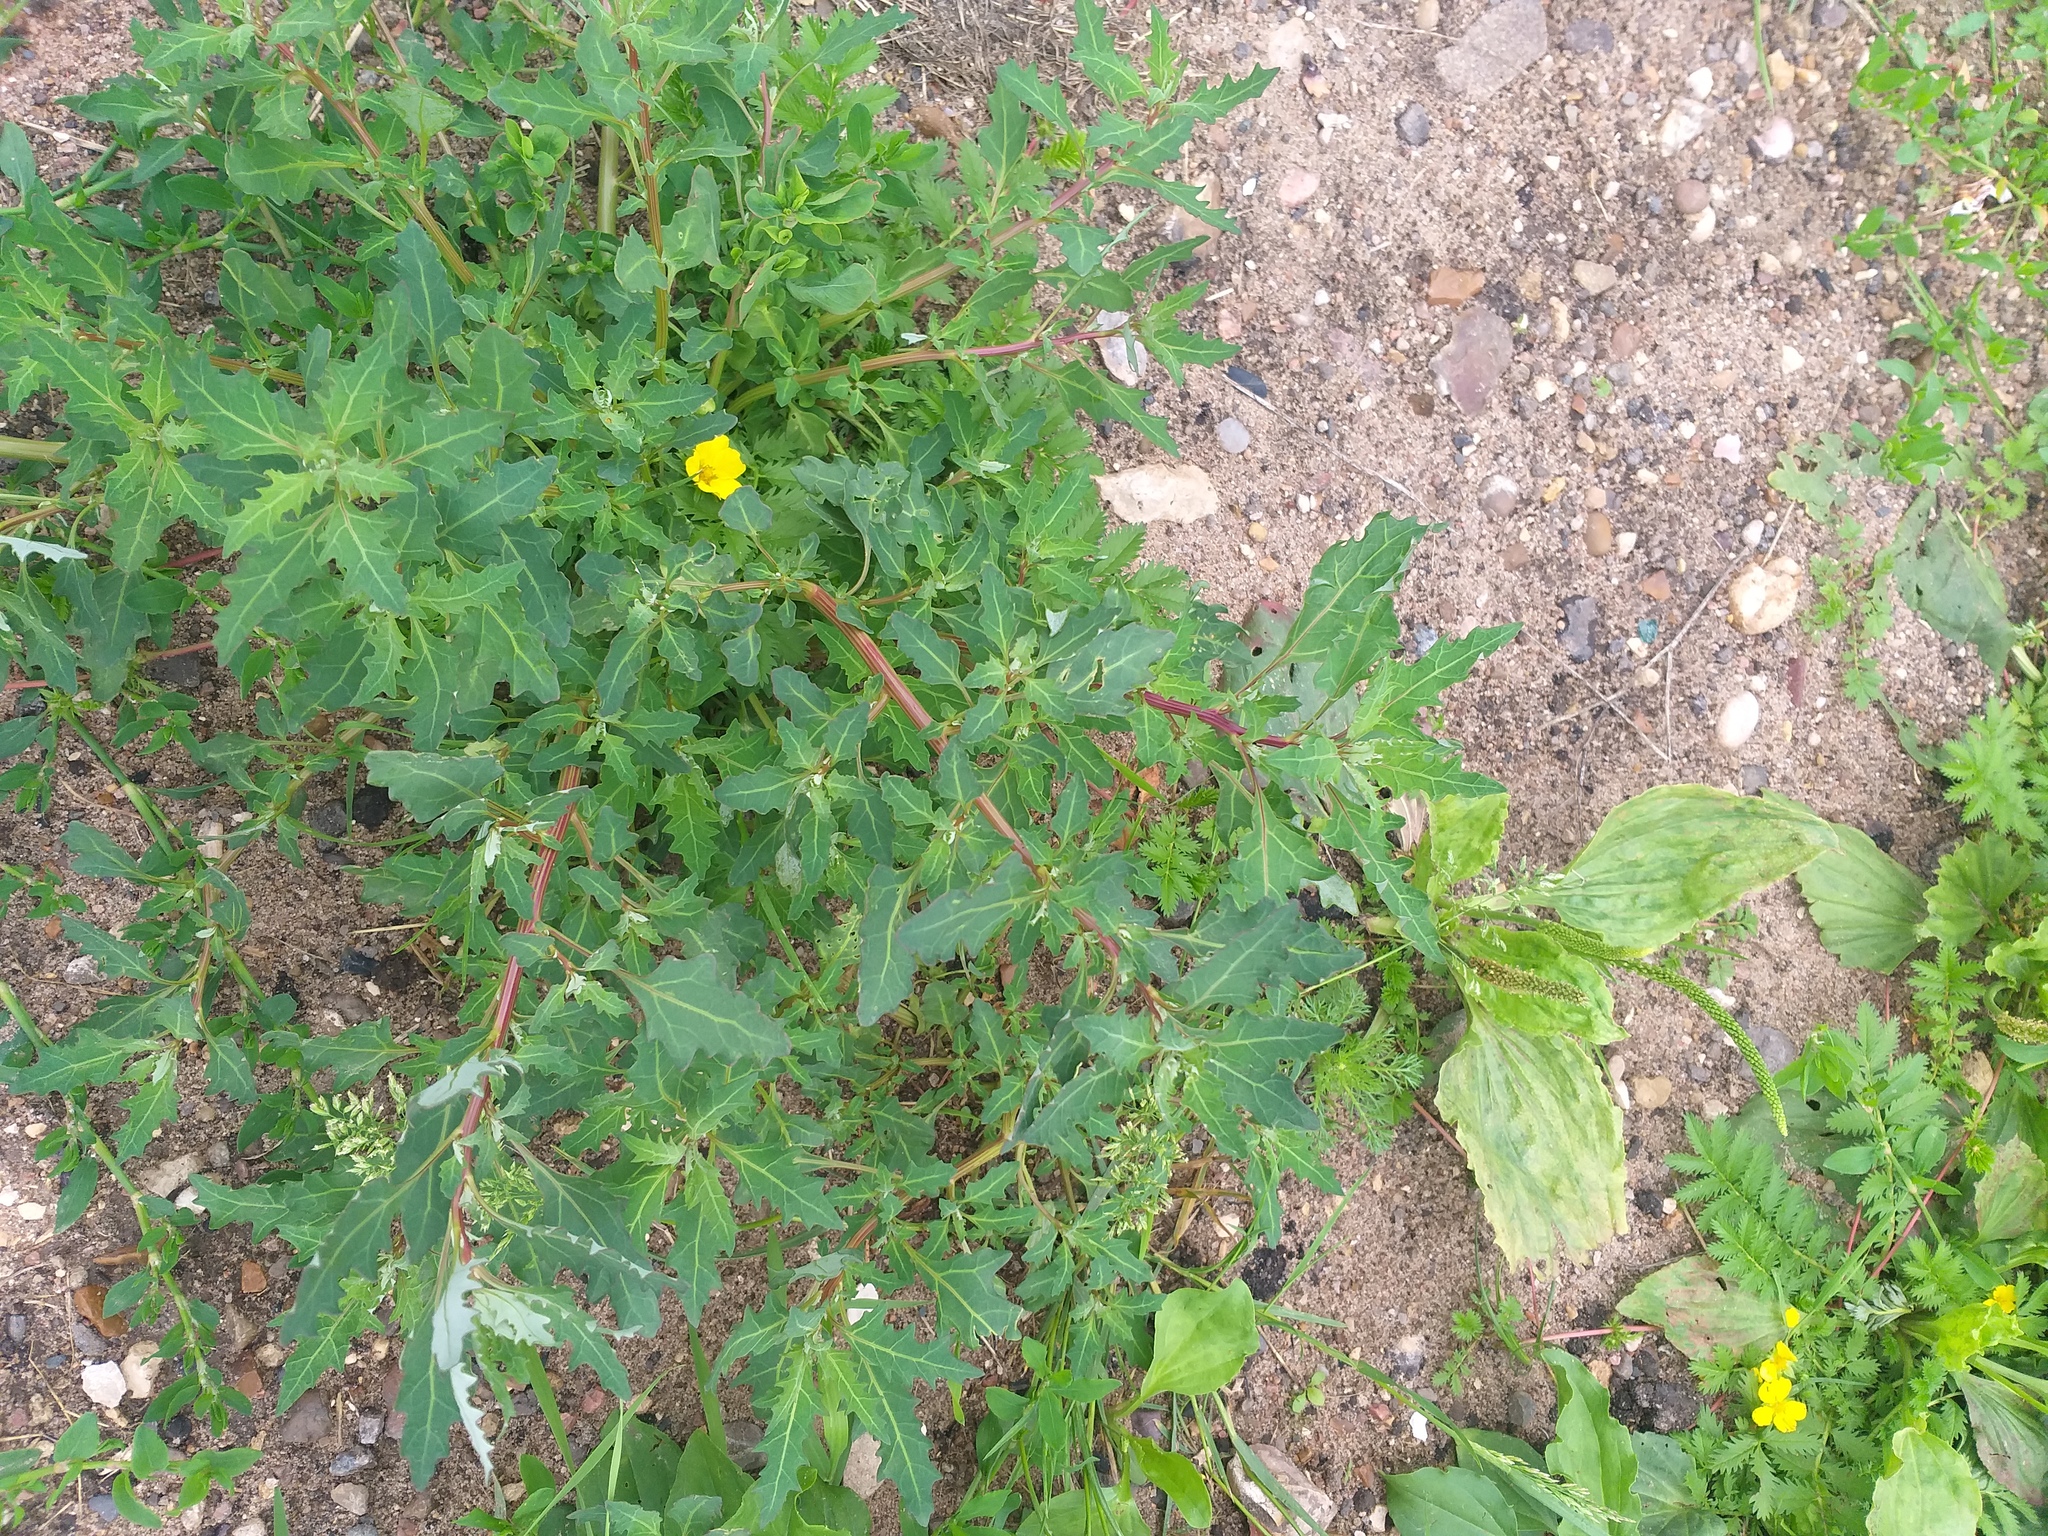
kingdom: Plantae
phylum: Tracheophyta
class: Magnoliopsida
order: Caryophyllales
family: Amaranthaceae
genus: Oxybasis
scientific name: Oxybasis glauca
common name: Glaucous goosefoot
